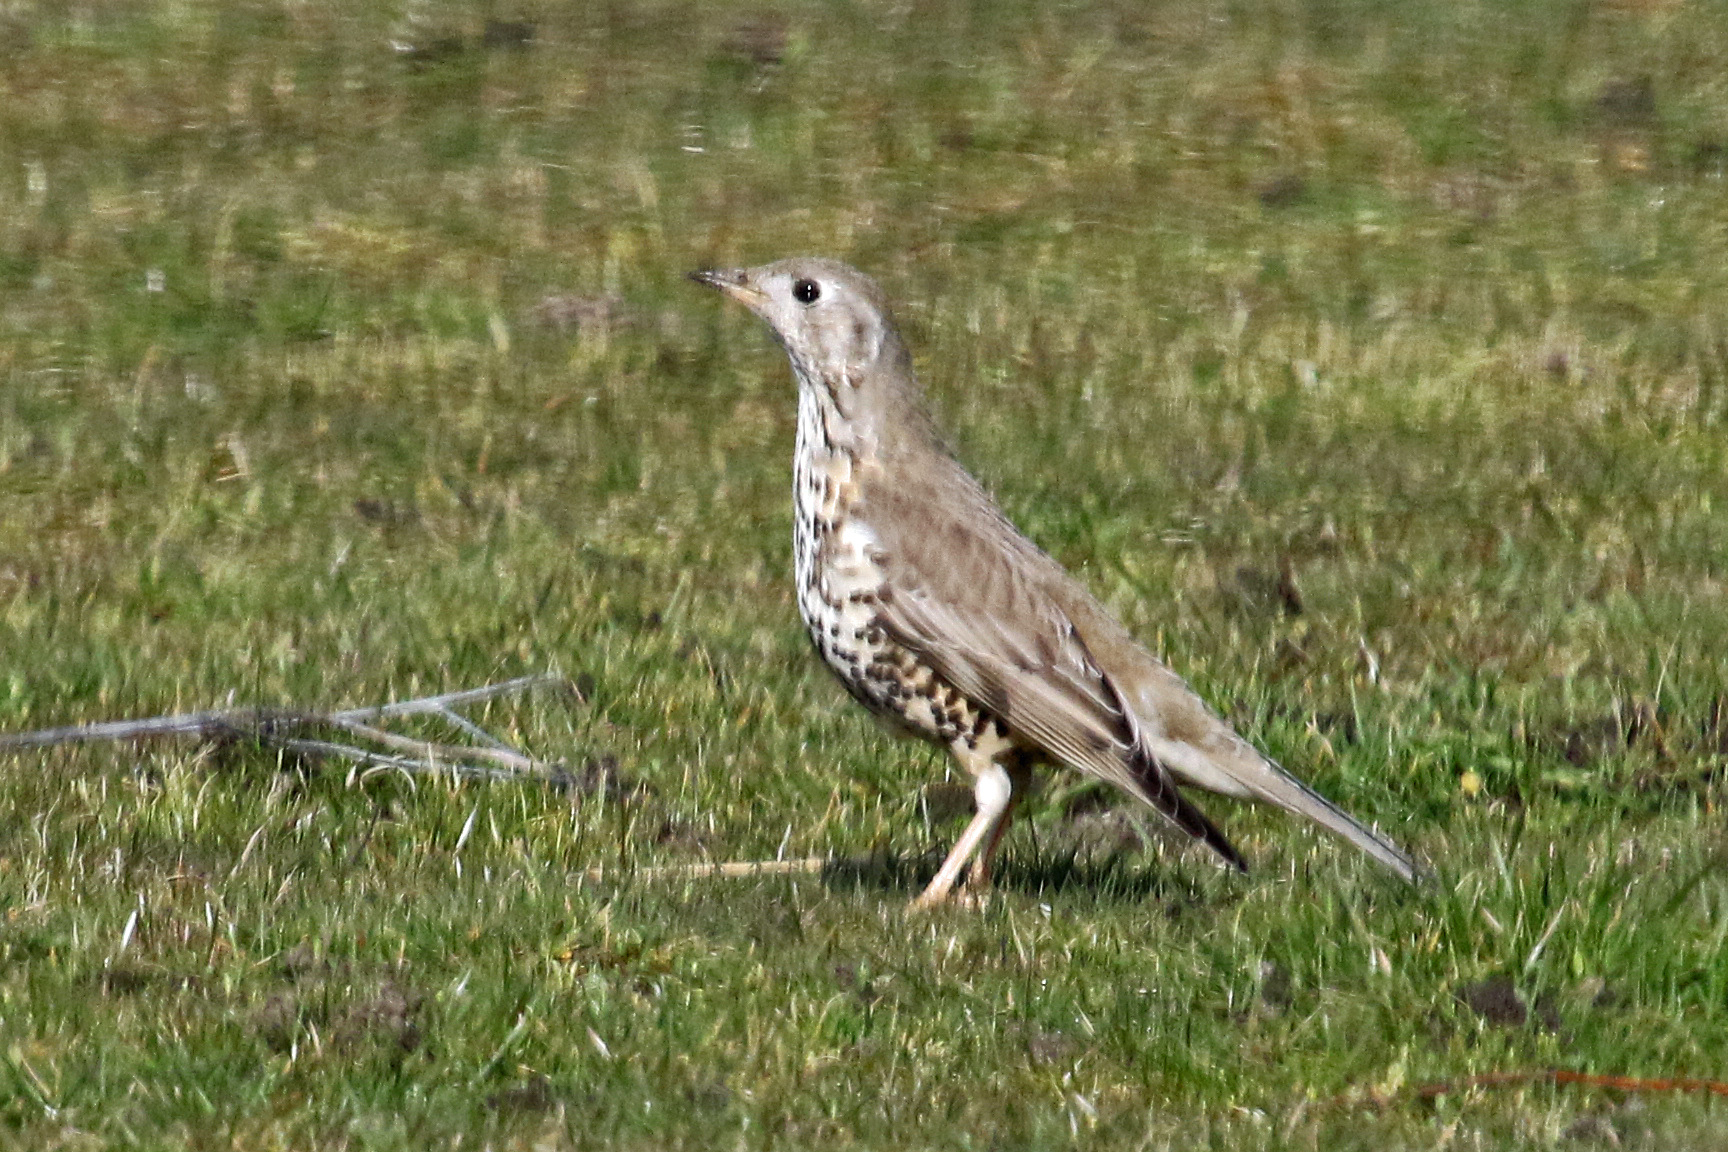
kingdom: Animalia
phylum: Chordata
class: Aves
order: Passeriformes
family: Turdidae
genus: Turdus
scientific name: Turdus viscivorus
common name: Mistle thrush
